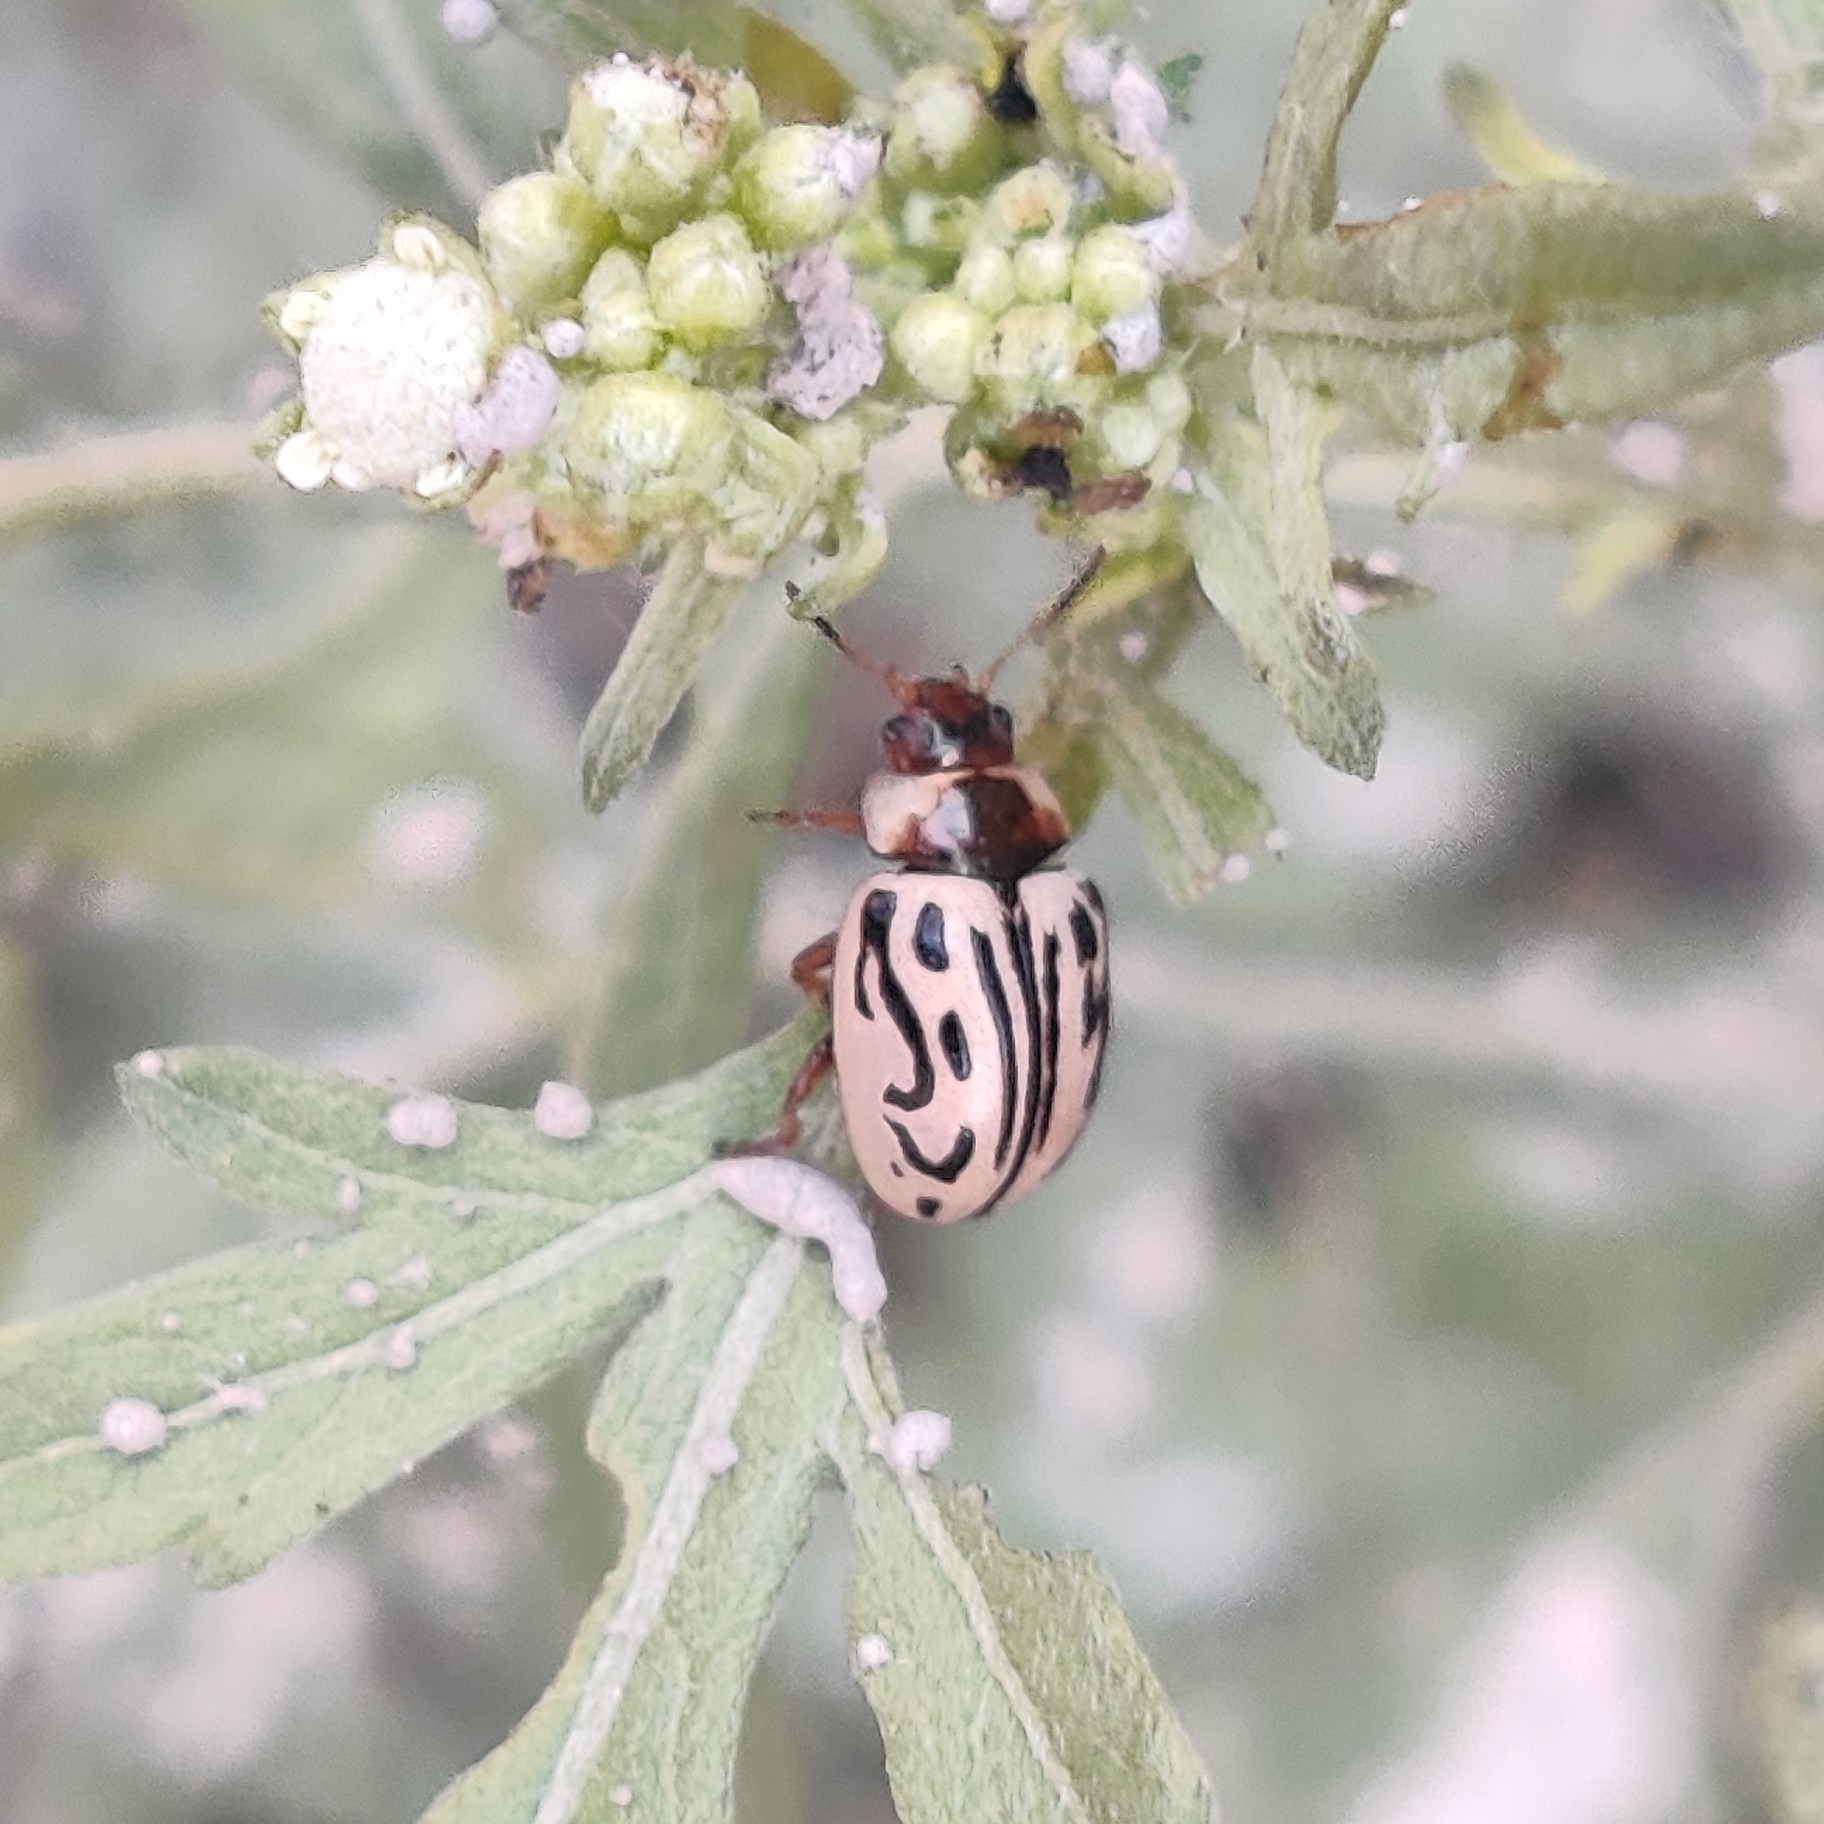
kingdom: Animalia
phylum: Arthropoda
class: Insecta
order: Coleoptera
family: Chrysomelidae
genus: Calligrapha
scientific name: Calligrapha
